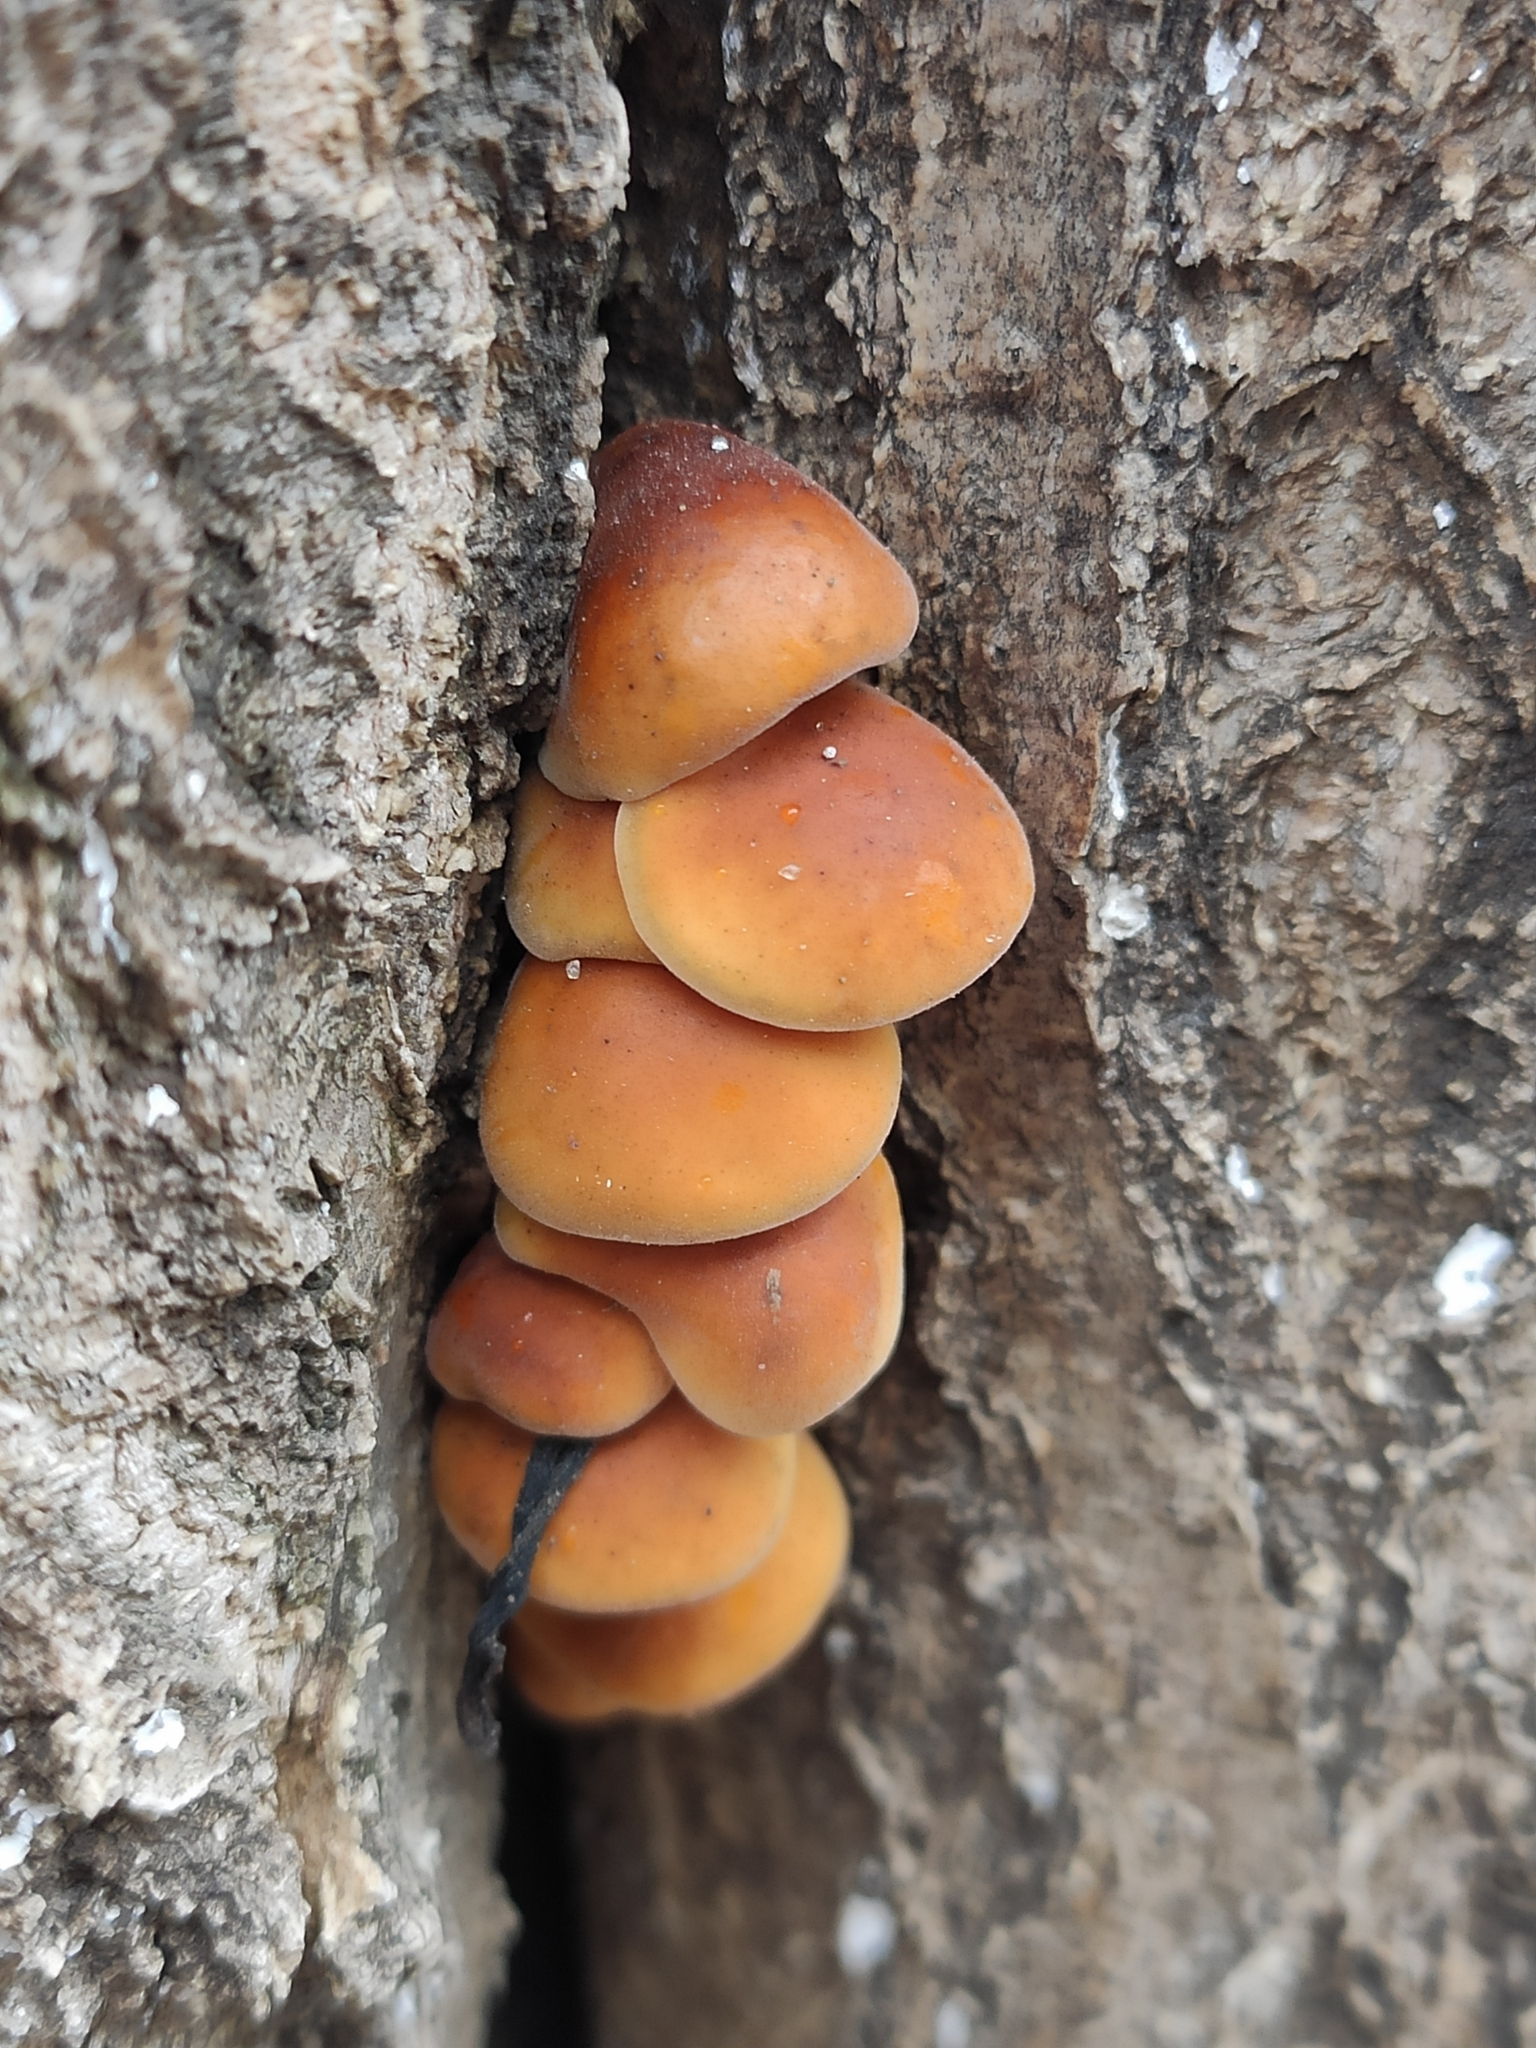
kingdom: Fungi
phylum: Basidiomycota
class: Agaricomycetes
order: Agaricales
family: Physalacriaceae
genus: Flammulina
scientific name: Flammulina
